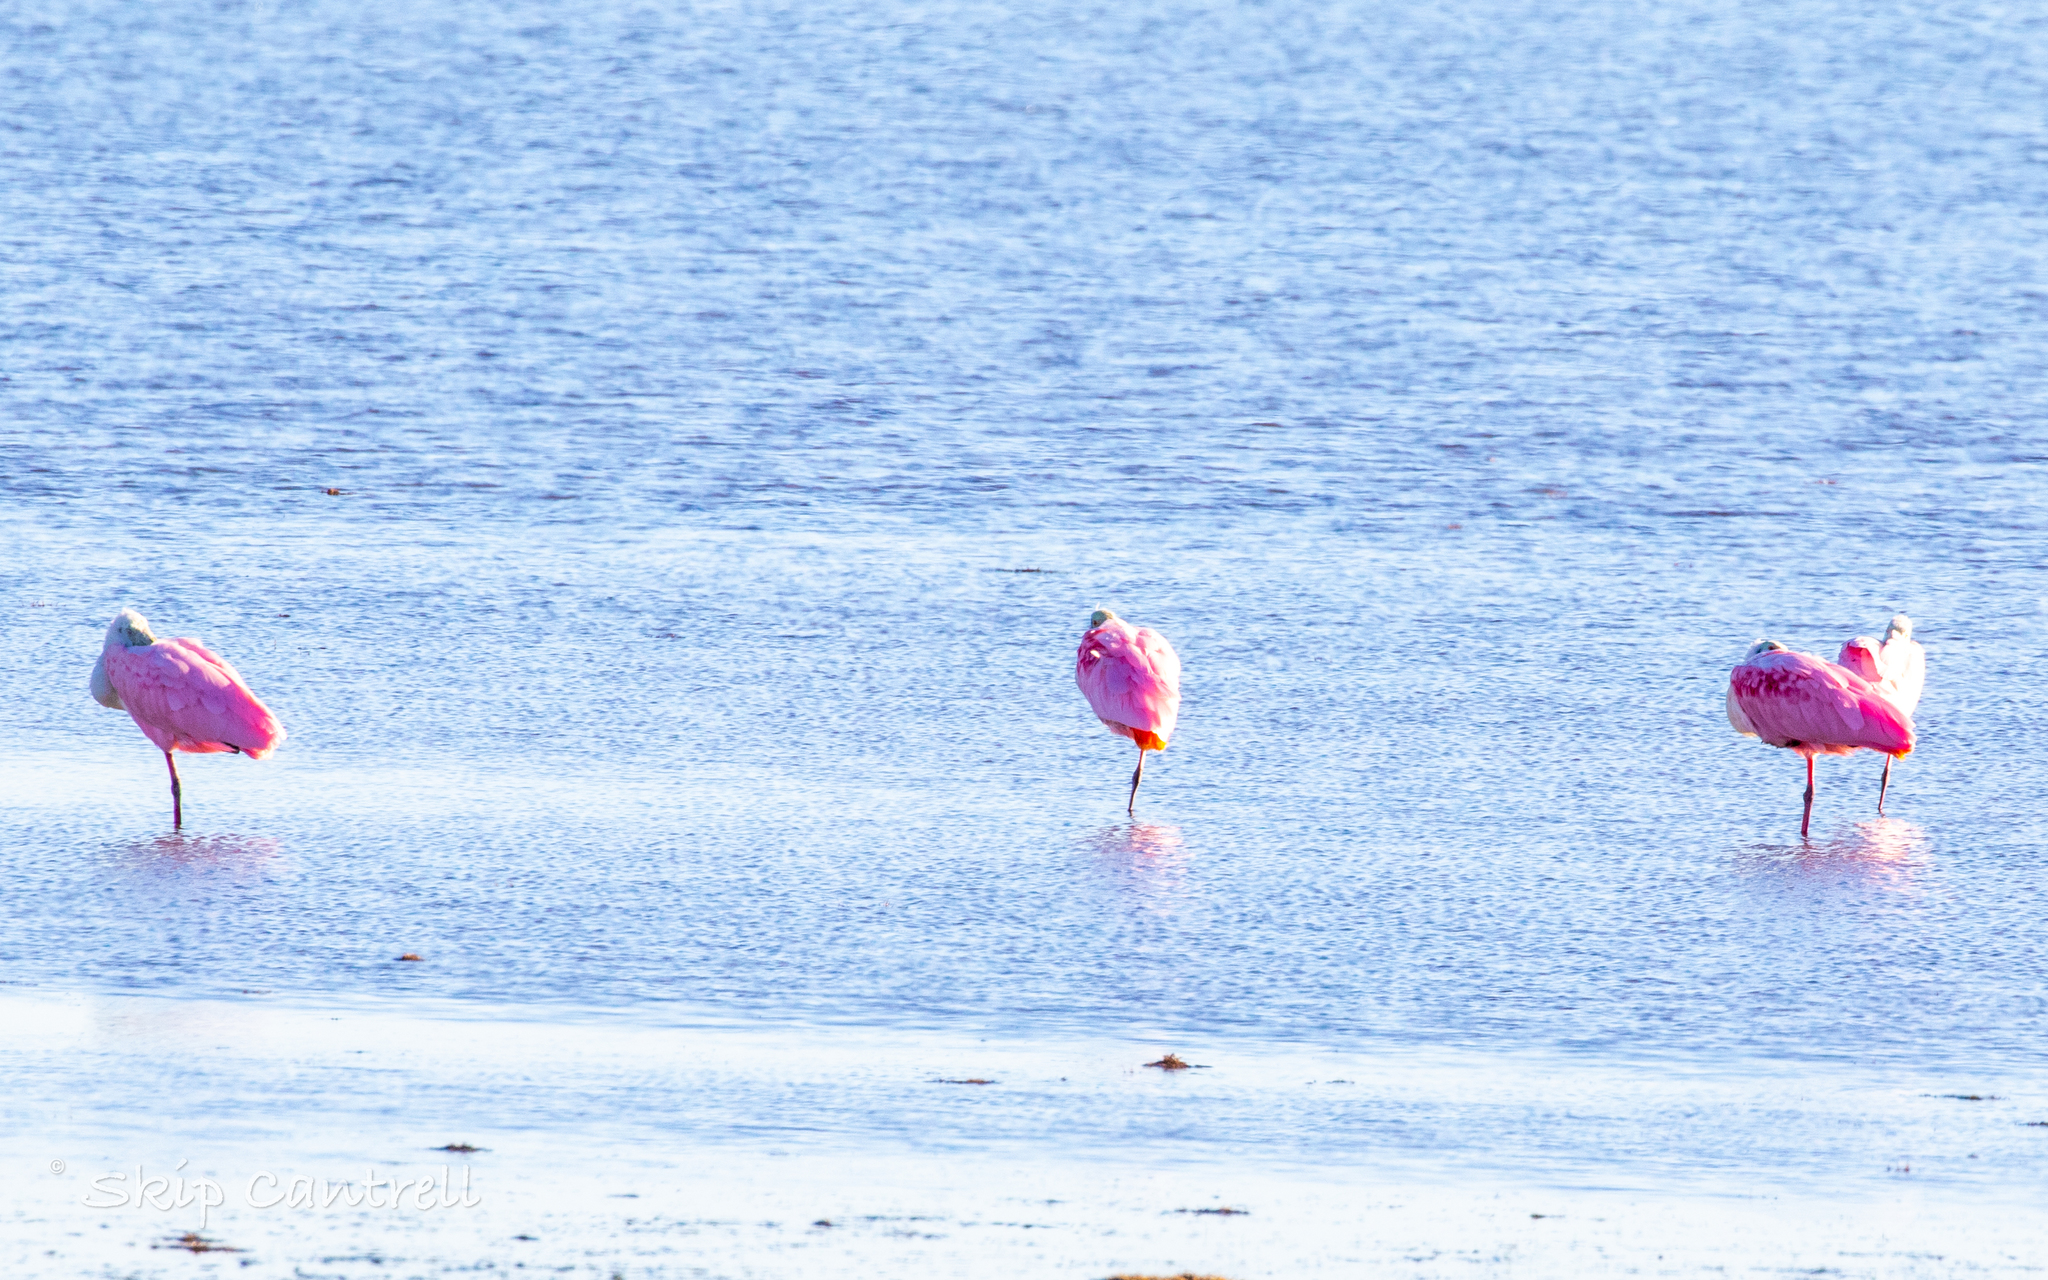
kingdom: Animalia
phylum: Chordata
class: Aves
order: Pelecaniformes
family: Threskiornithidae
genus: Platalea
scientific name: Platalea ajaja
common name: Roseate spoonbill
